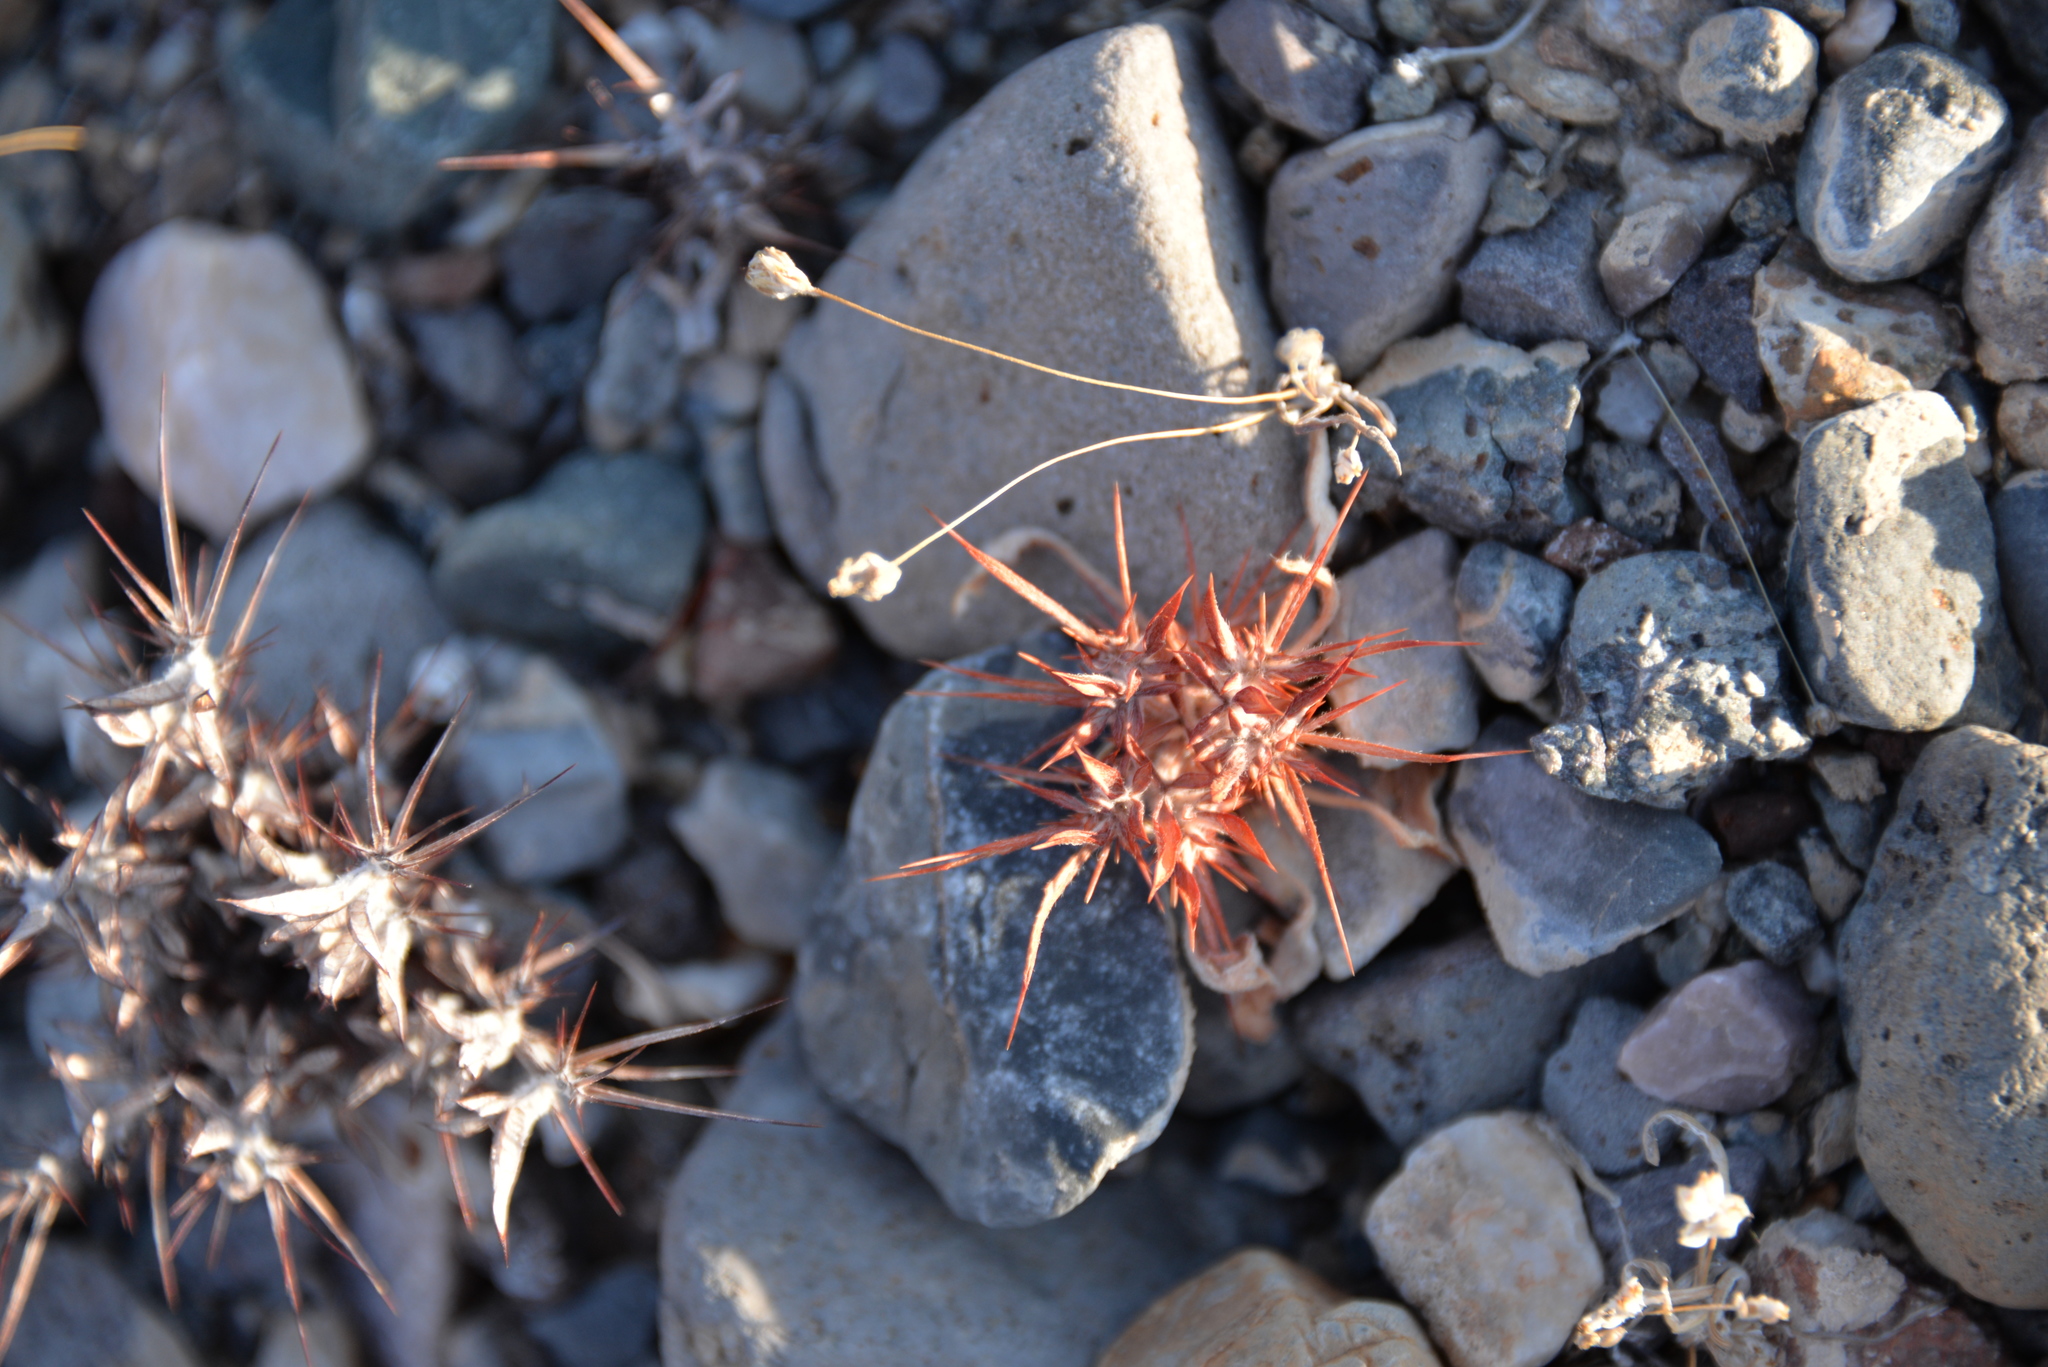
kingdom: Plantae
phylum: Tracheophyta
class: Magnoliopsida
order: Caryophyllales
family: Polygonaceae
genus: Chorizanthe
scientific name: Chorizanthe rigida
